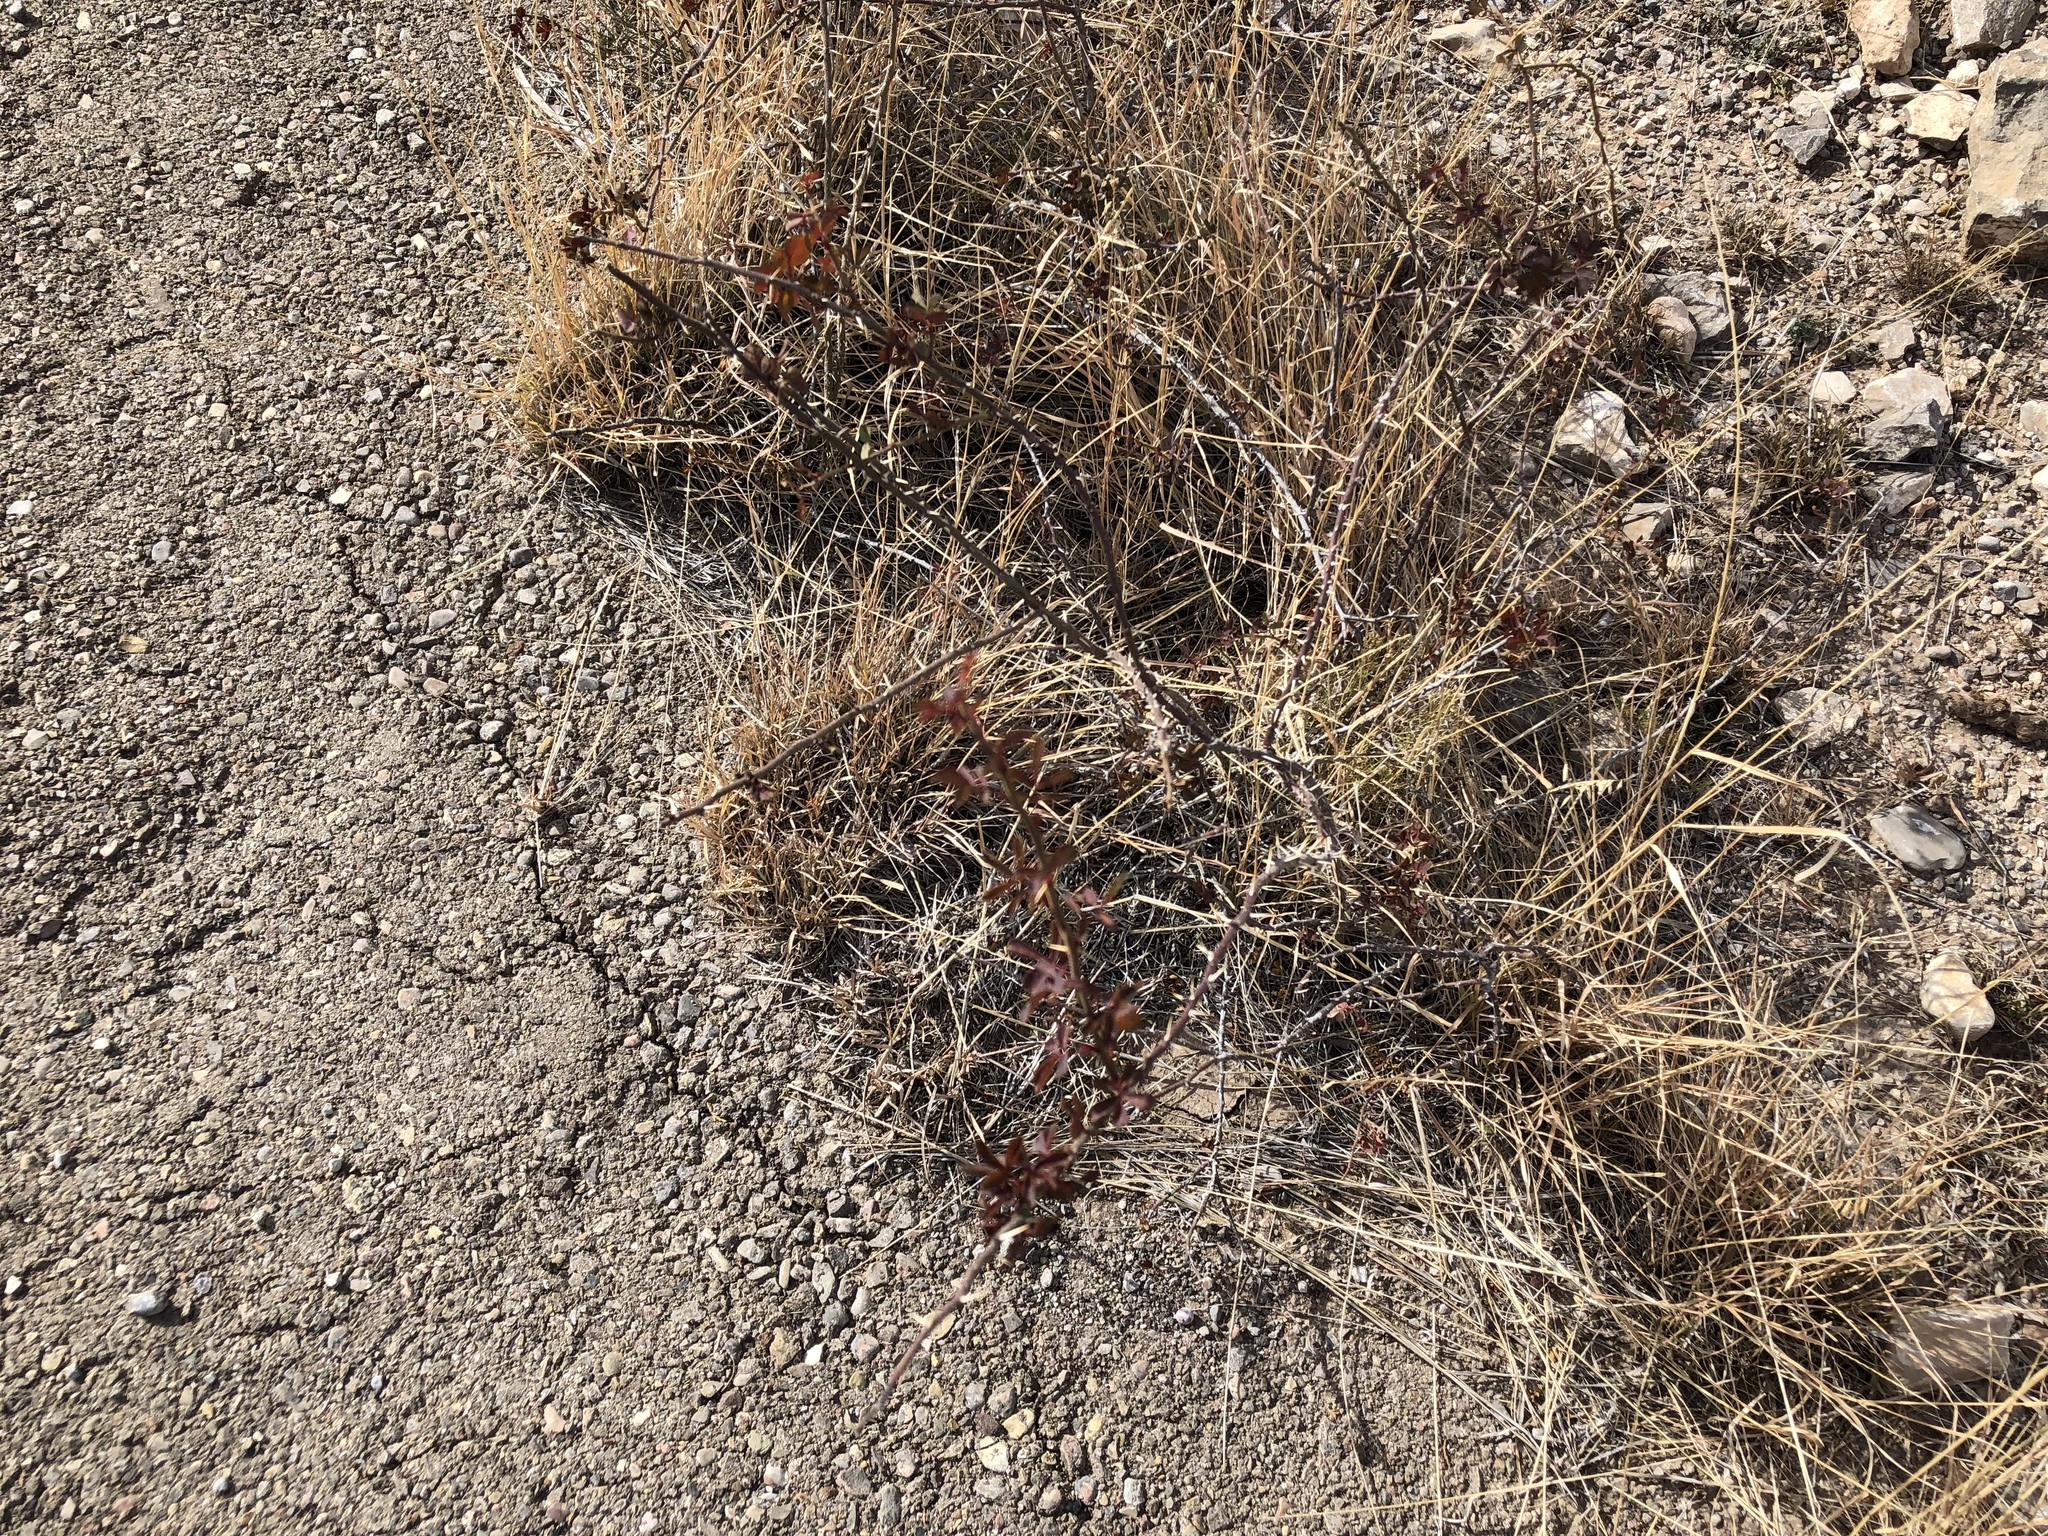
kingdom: Plantae
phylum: Tracheophyta
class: Magnoliopsida
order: Rosales
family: Rosaceae
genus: Rosa
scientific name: Rosa stellata
